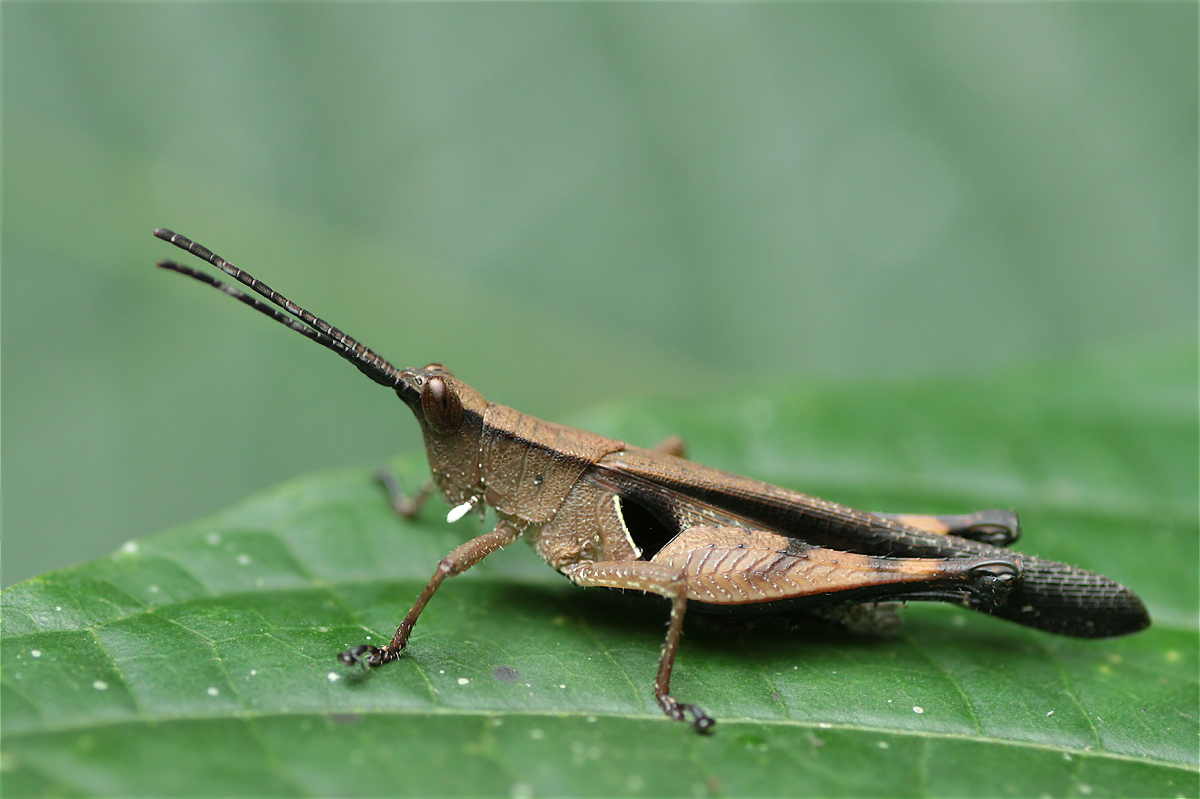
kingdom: Animalia
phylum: Arthropoda
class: Insecta
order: Orthoptera
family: Acrididae
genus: Xiphiola
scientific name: Xiphiola cyanoptera
